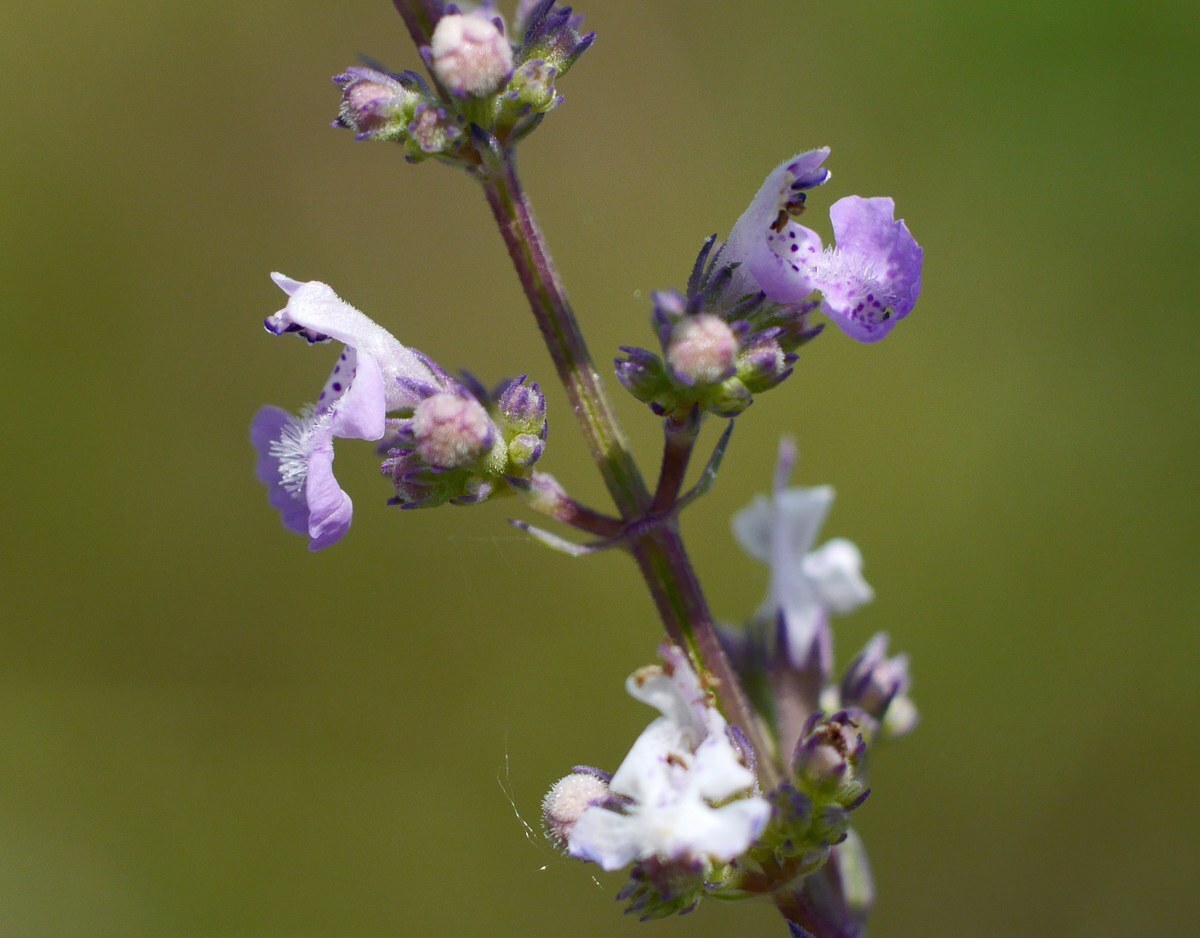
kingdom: Plantae
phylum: Tracheophyta
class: Magnoliopsida
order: Lamiales
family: Lamiaceae
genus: Nepeta
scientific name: Nepeta nuda
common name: Hairless catmint
